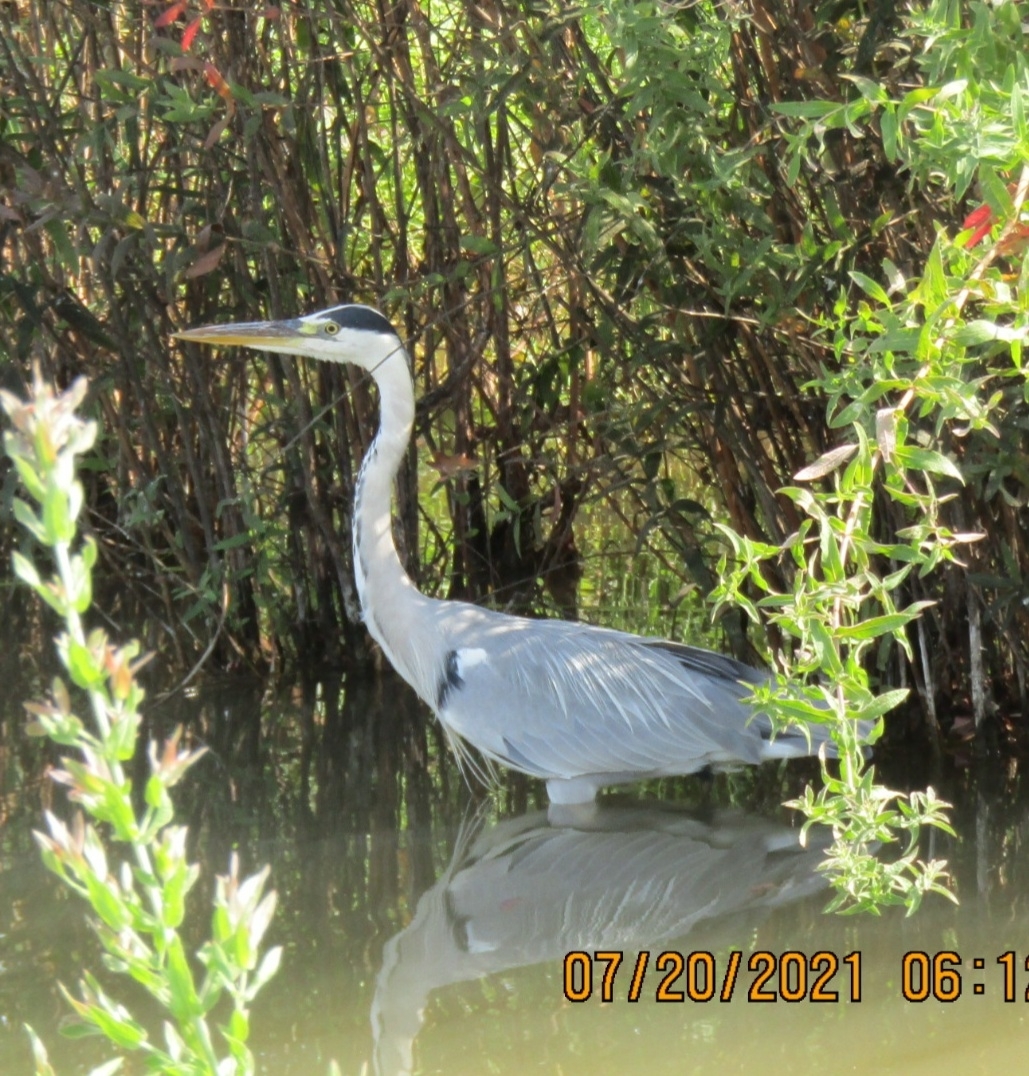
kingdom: Animalia
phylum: Chordata
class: Aves
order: Pelecaniformes
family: Ardeidae
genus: Ardea
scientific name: Ardea cinerea
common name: Grey heron
